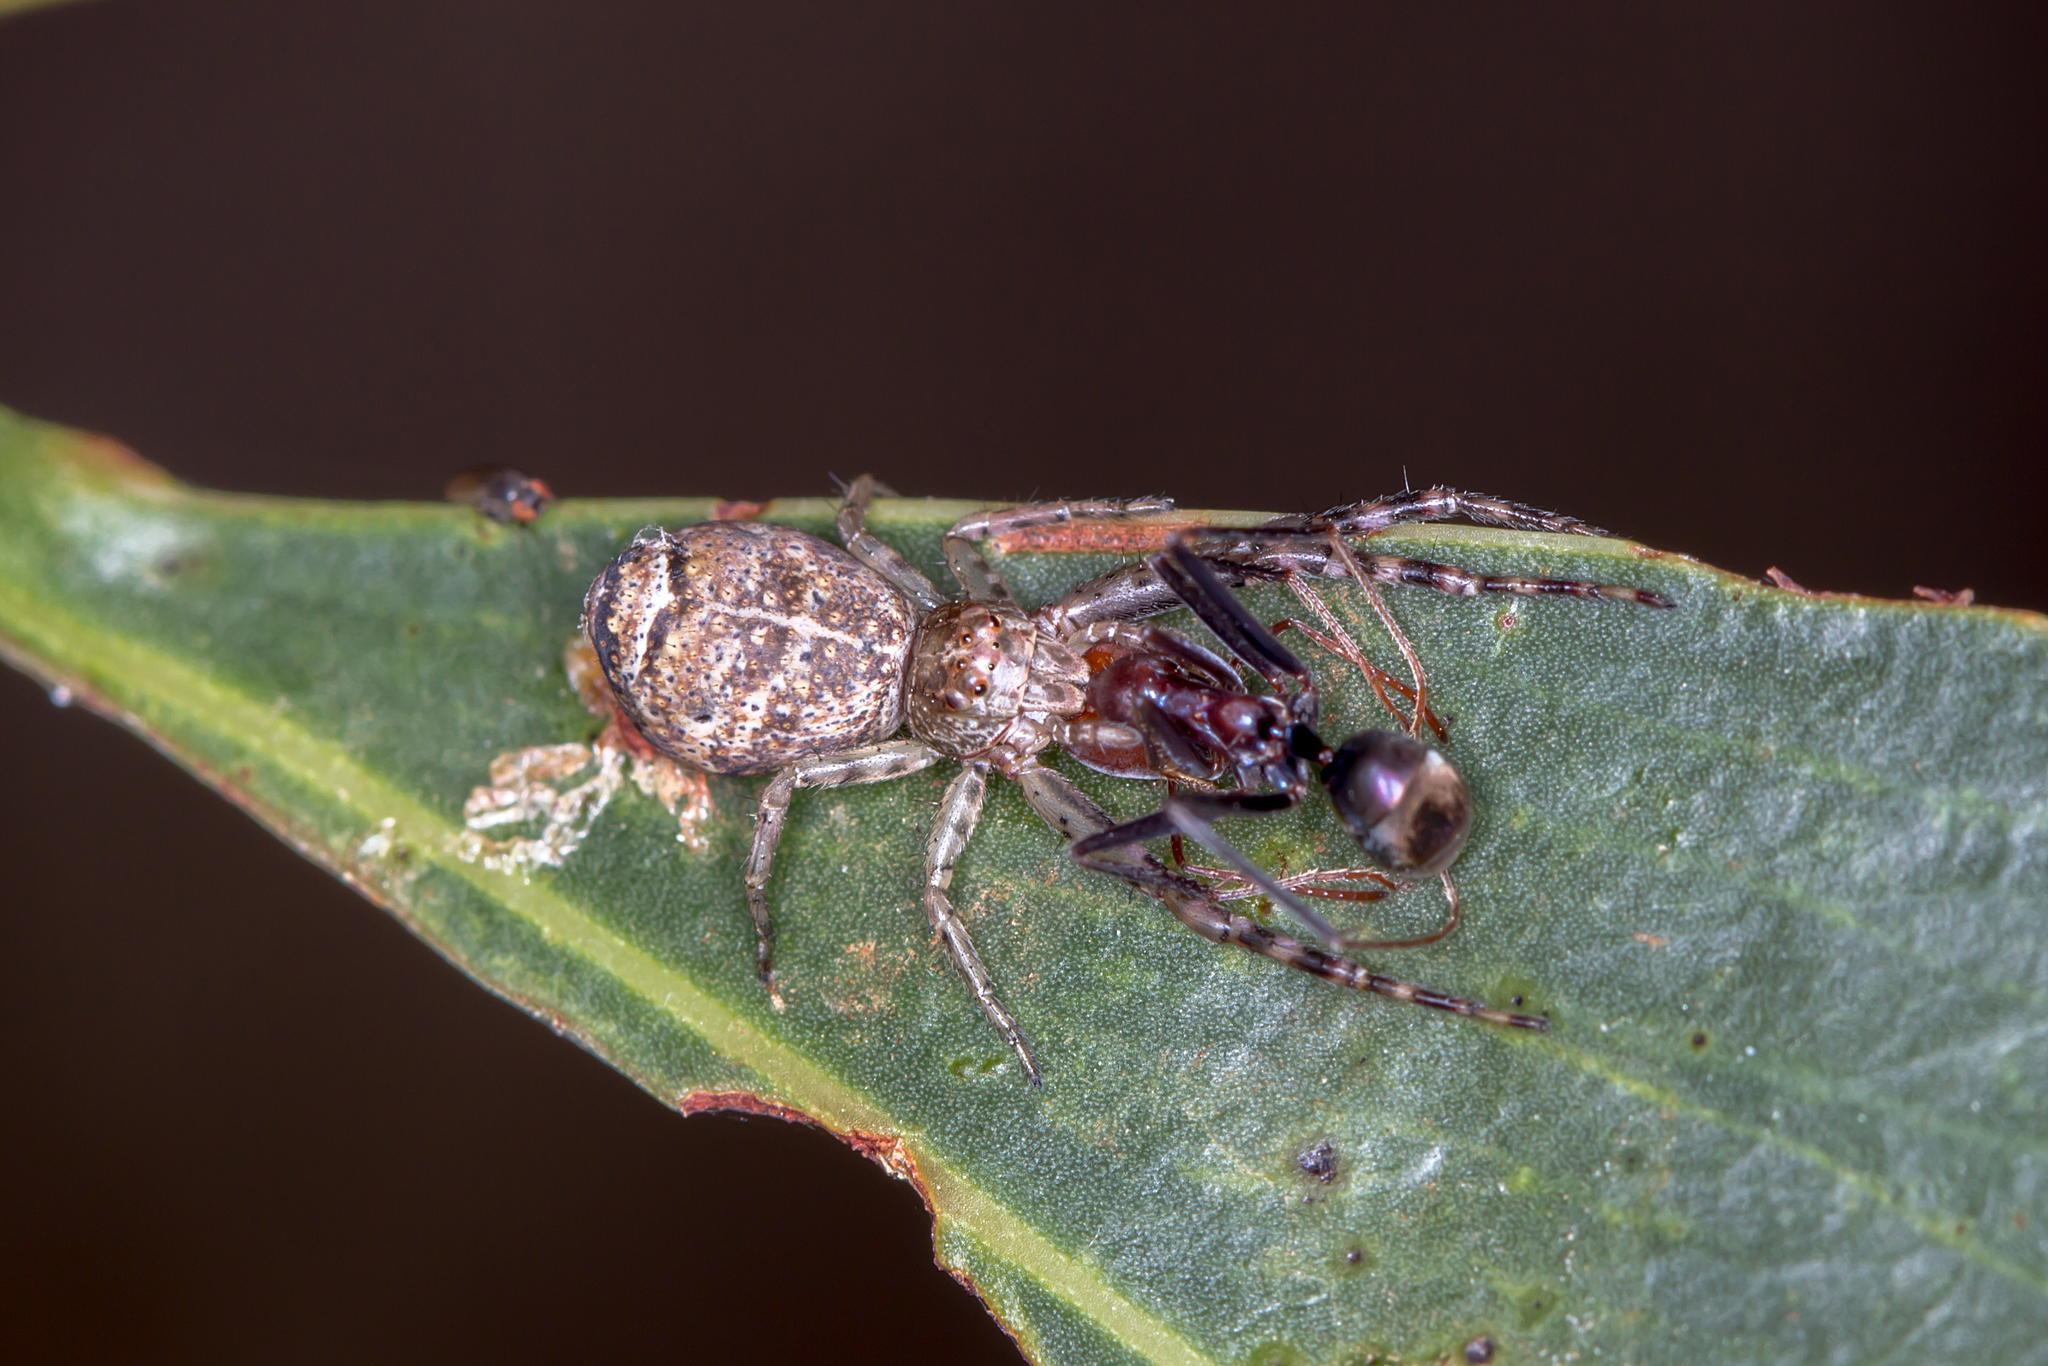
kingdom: Animalia
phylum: Arthropoda
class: Arachnida
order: Araneae
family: Thomisidae
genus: Tmarus
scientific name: Tmarus variabilis
